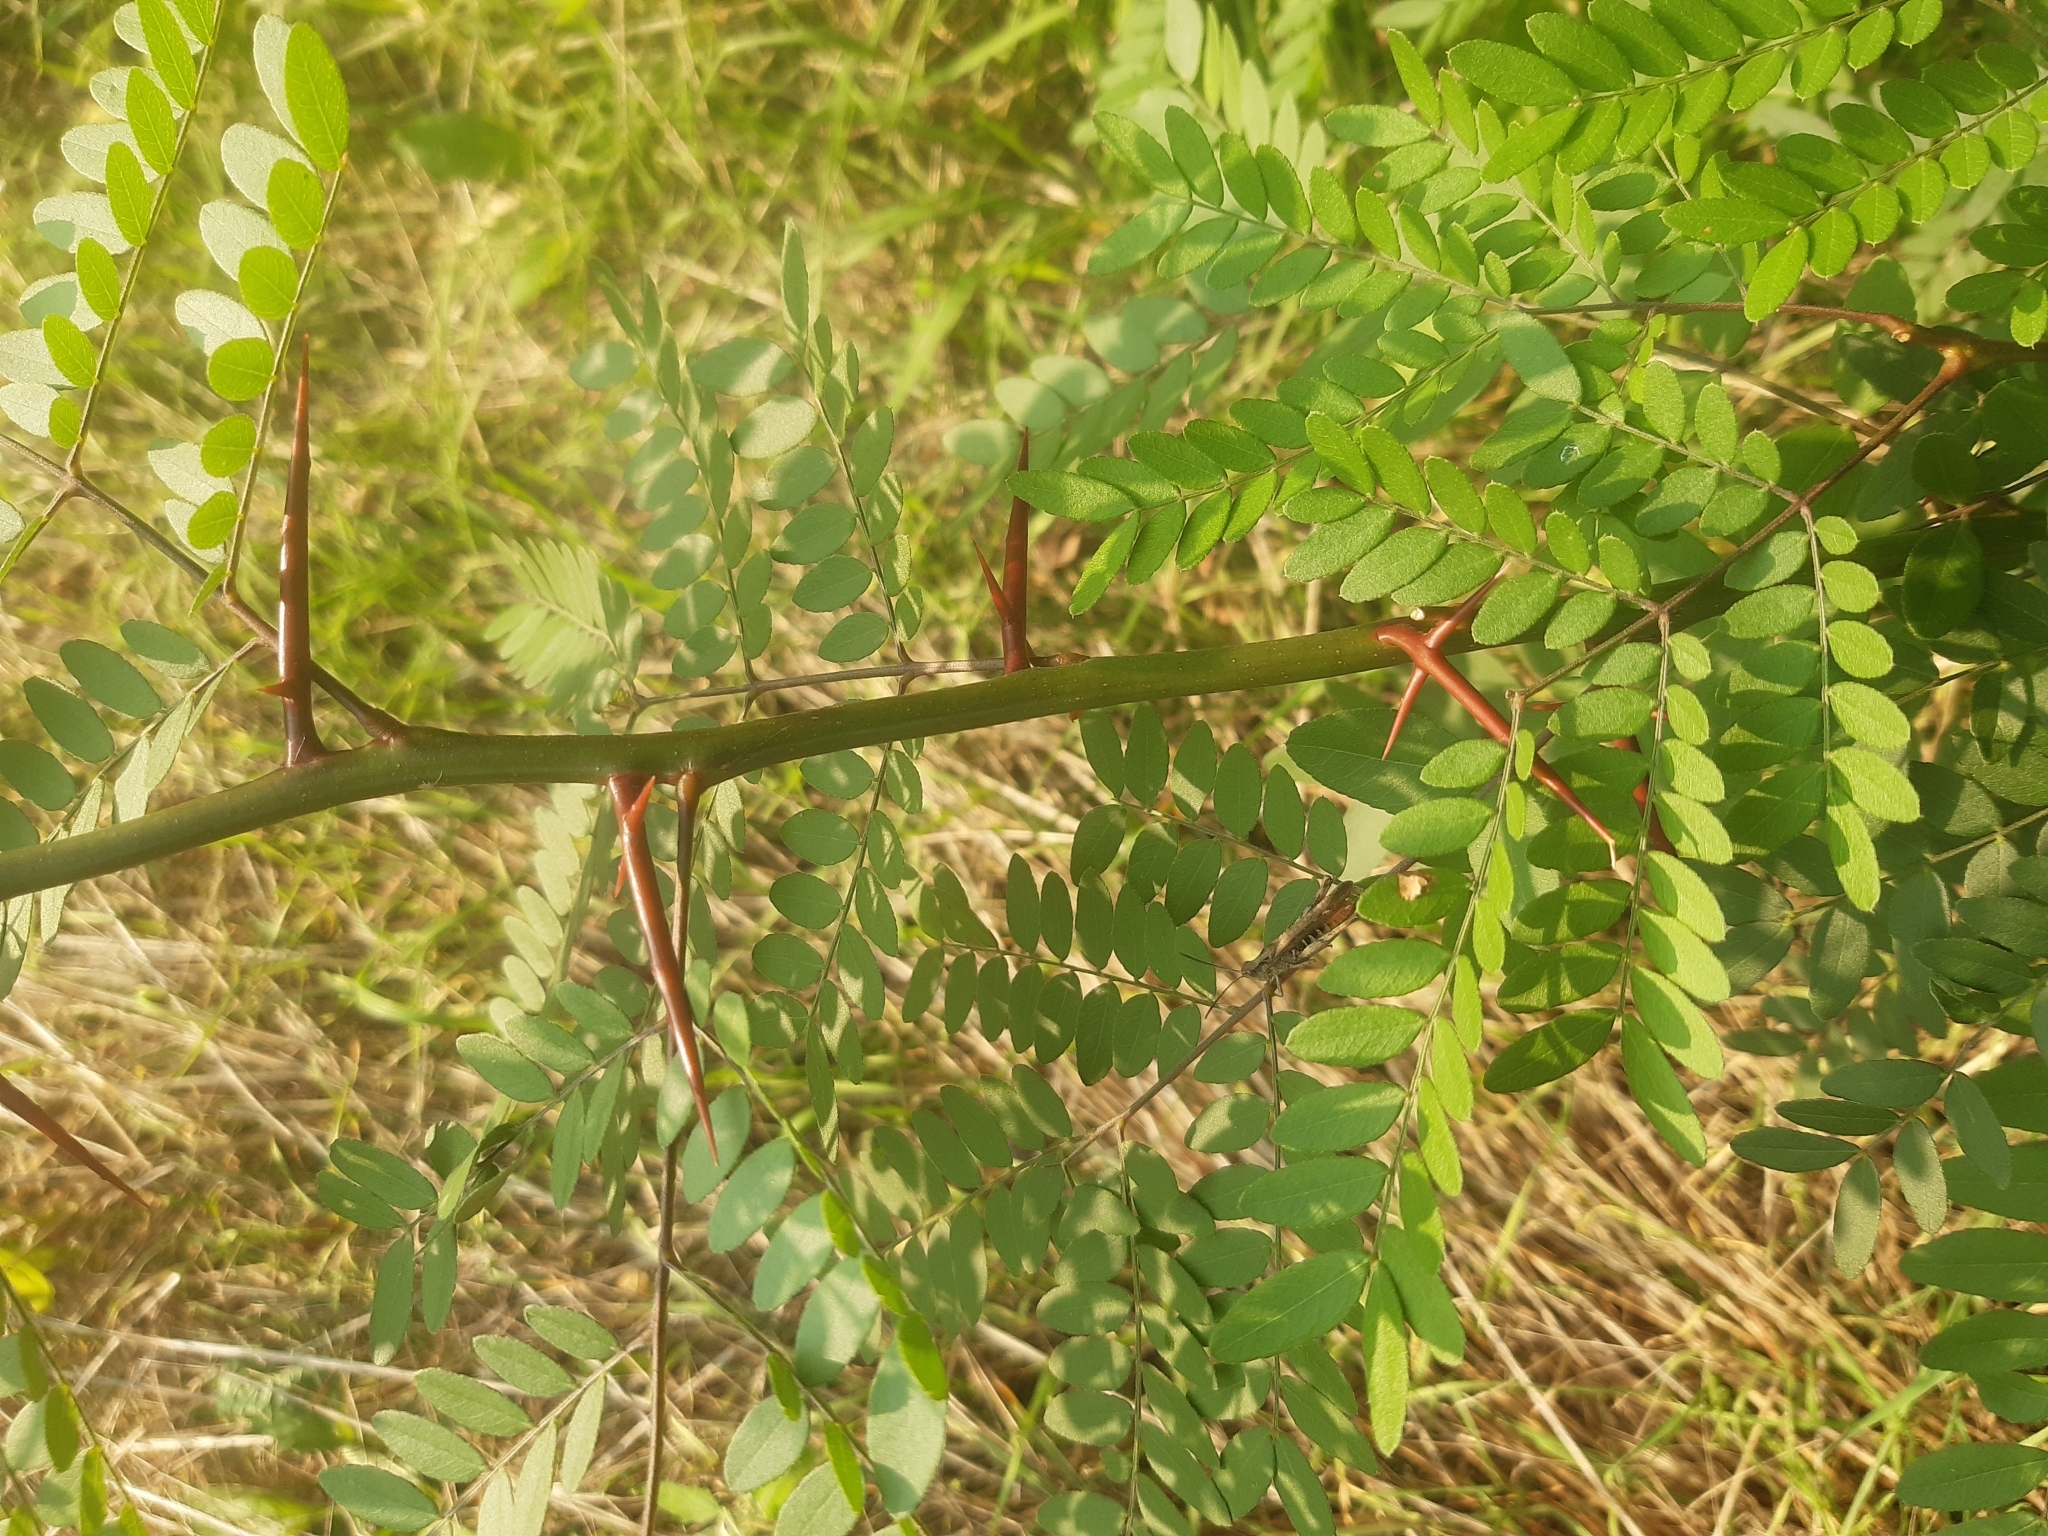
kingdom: Plantae
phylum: Tracheophyta
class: Magnoliopsida
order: Fabales
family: Fabaceae
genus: Gleditsia
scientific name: Gleditsia triacanthos
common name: Common honeylocust
